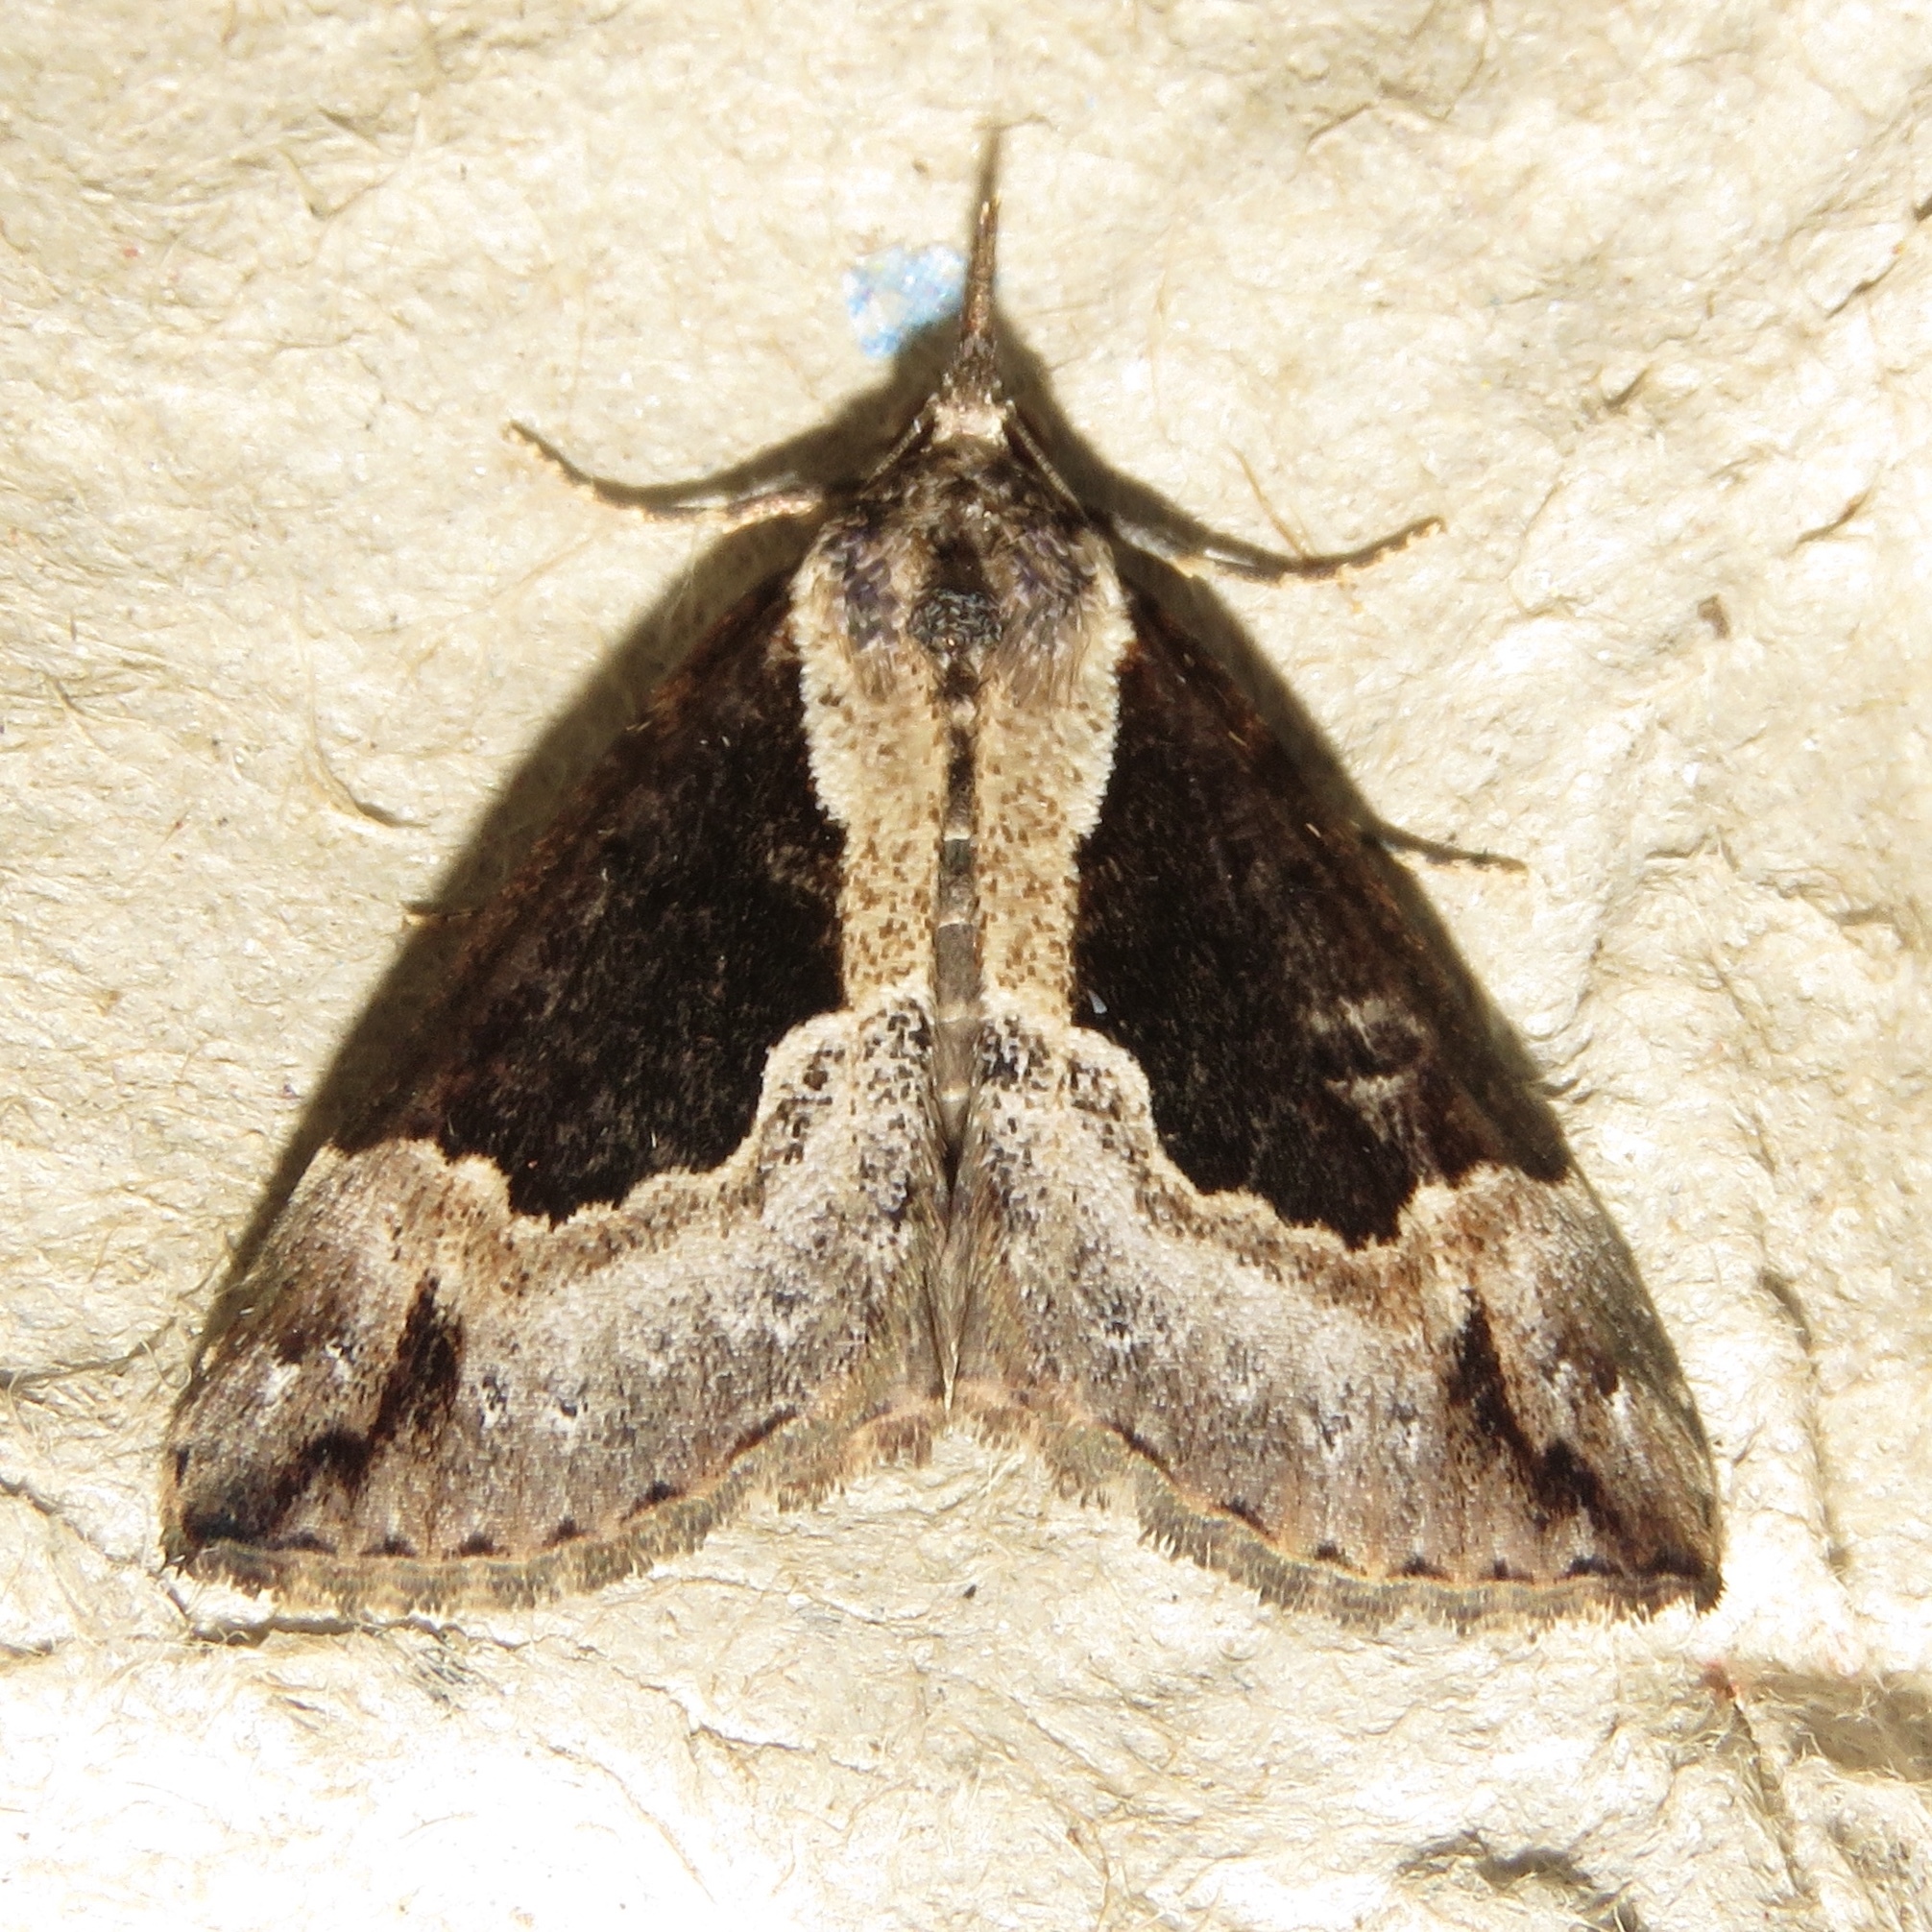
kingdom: Animalia
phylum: Arthropoda
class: Insecta
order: Lepidoptera
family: Erebidae
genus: Hypena
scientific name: Hypena baltimoralis
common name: Baltimore snout
